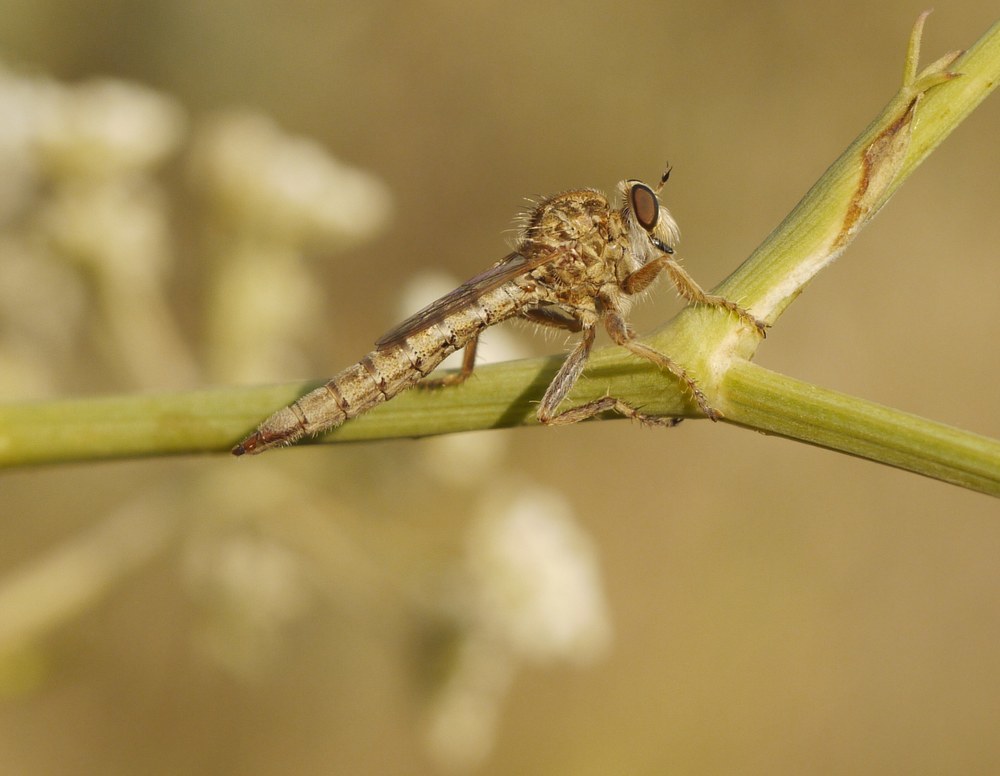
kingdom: Animalia
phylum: Arthropoda
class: Insecta
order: Diptera
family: Asilidae
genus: Antiphrisson
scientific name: Antiphrisson elachypteryx
